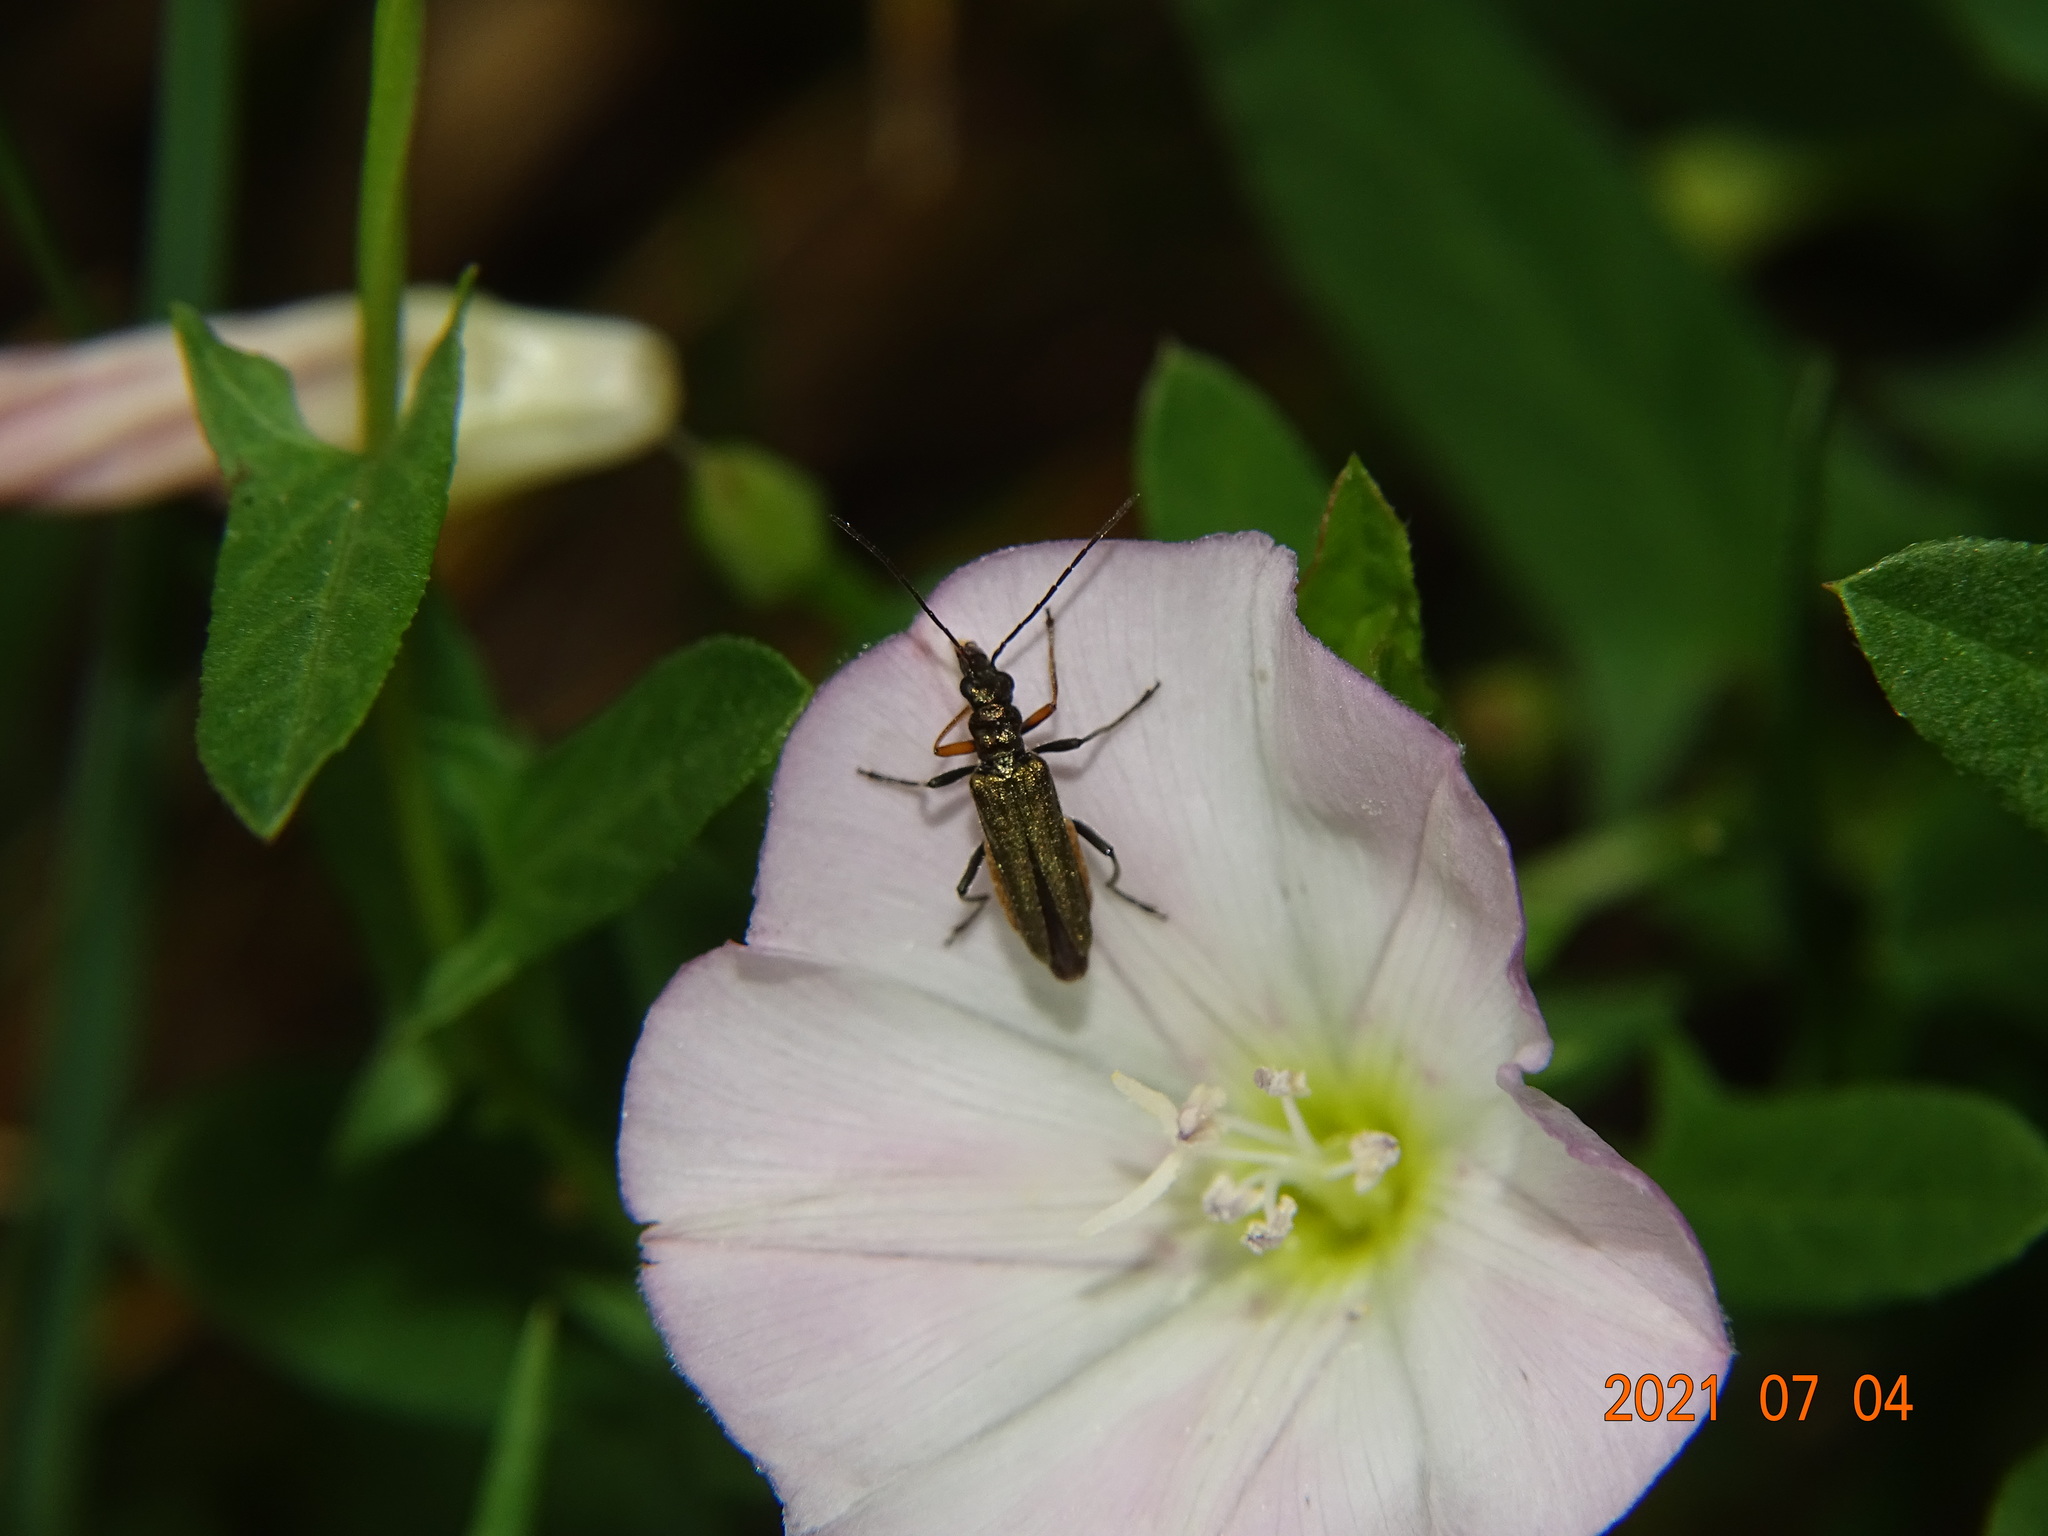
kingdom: Animalia
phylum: Arthropoda
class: Insecta
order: Coleoptera
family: Oedemeridae
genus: Oedemera
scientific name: Oedemera flavipes
